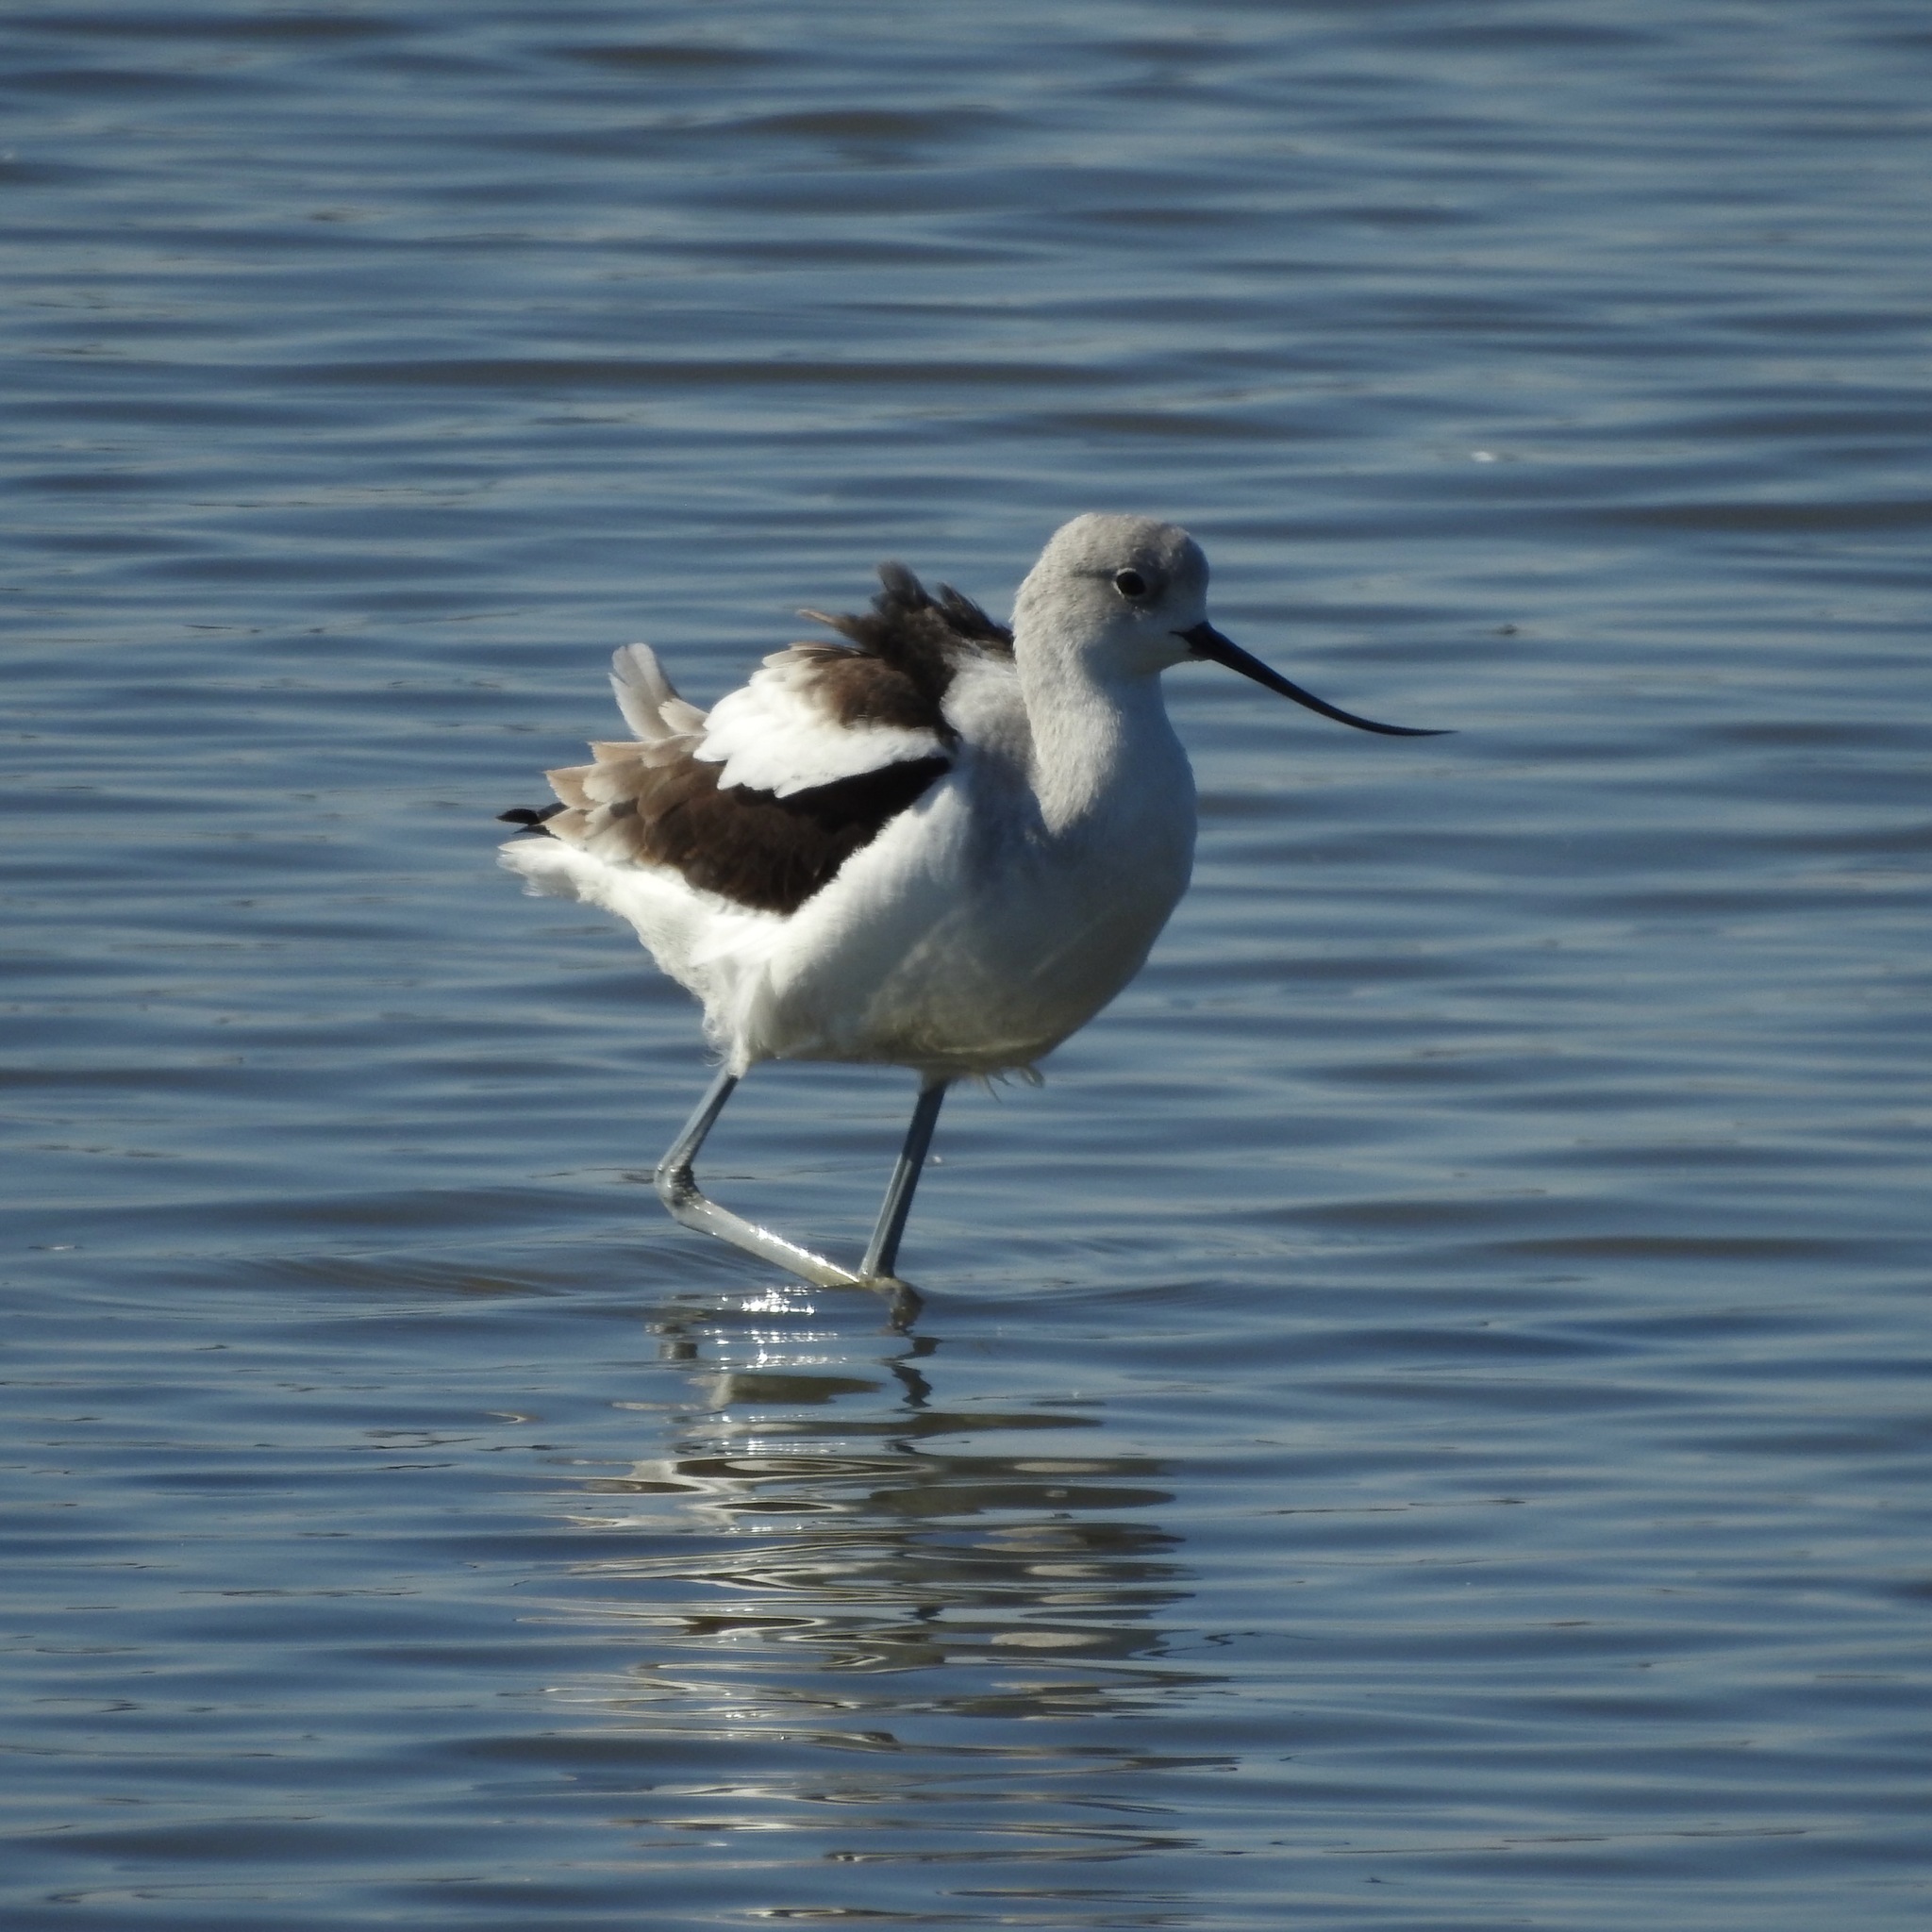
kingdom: Animalia
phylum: Chordata
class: Aves
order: Charadriiformes
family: Recurvirostridae
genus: Recurvirostra
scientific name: Recurvirostra americana
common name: American avocet
